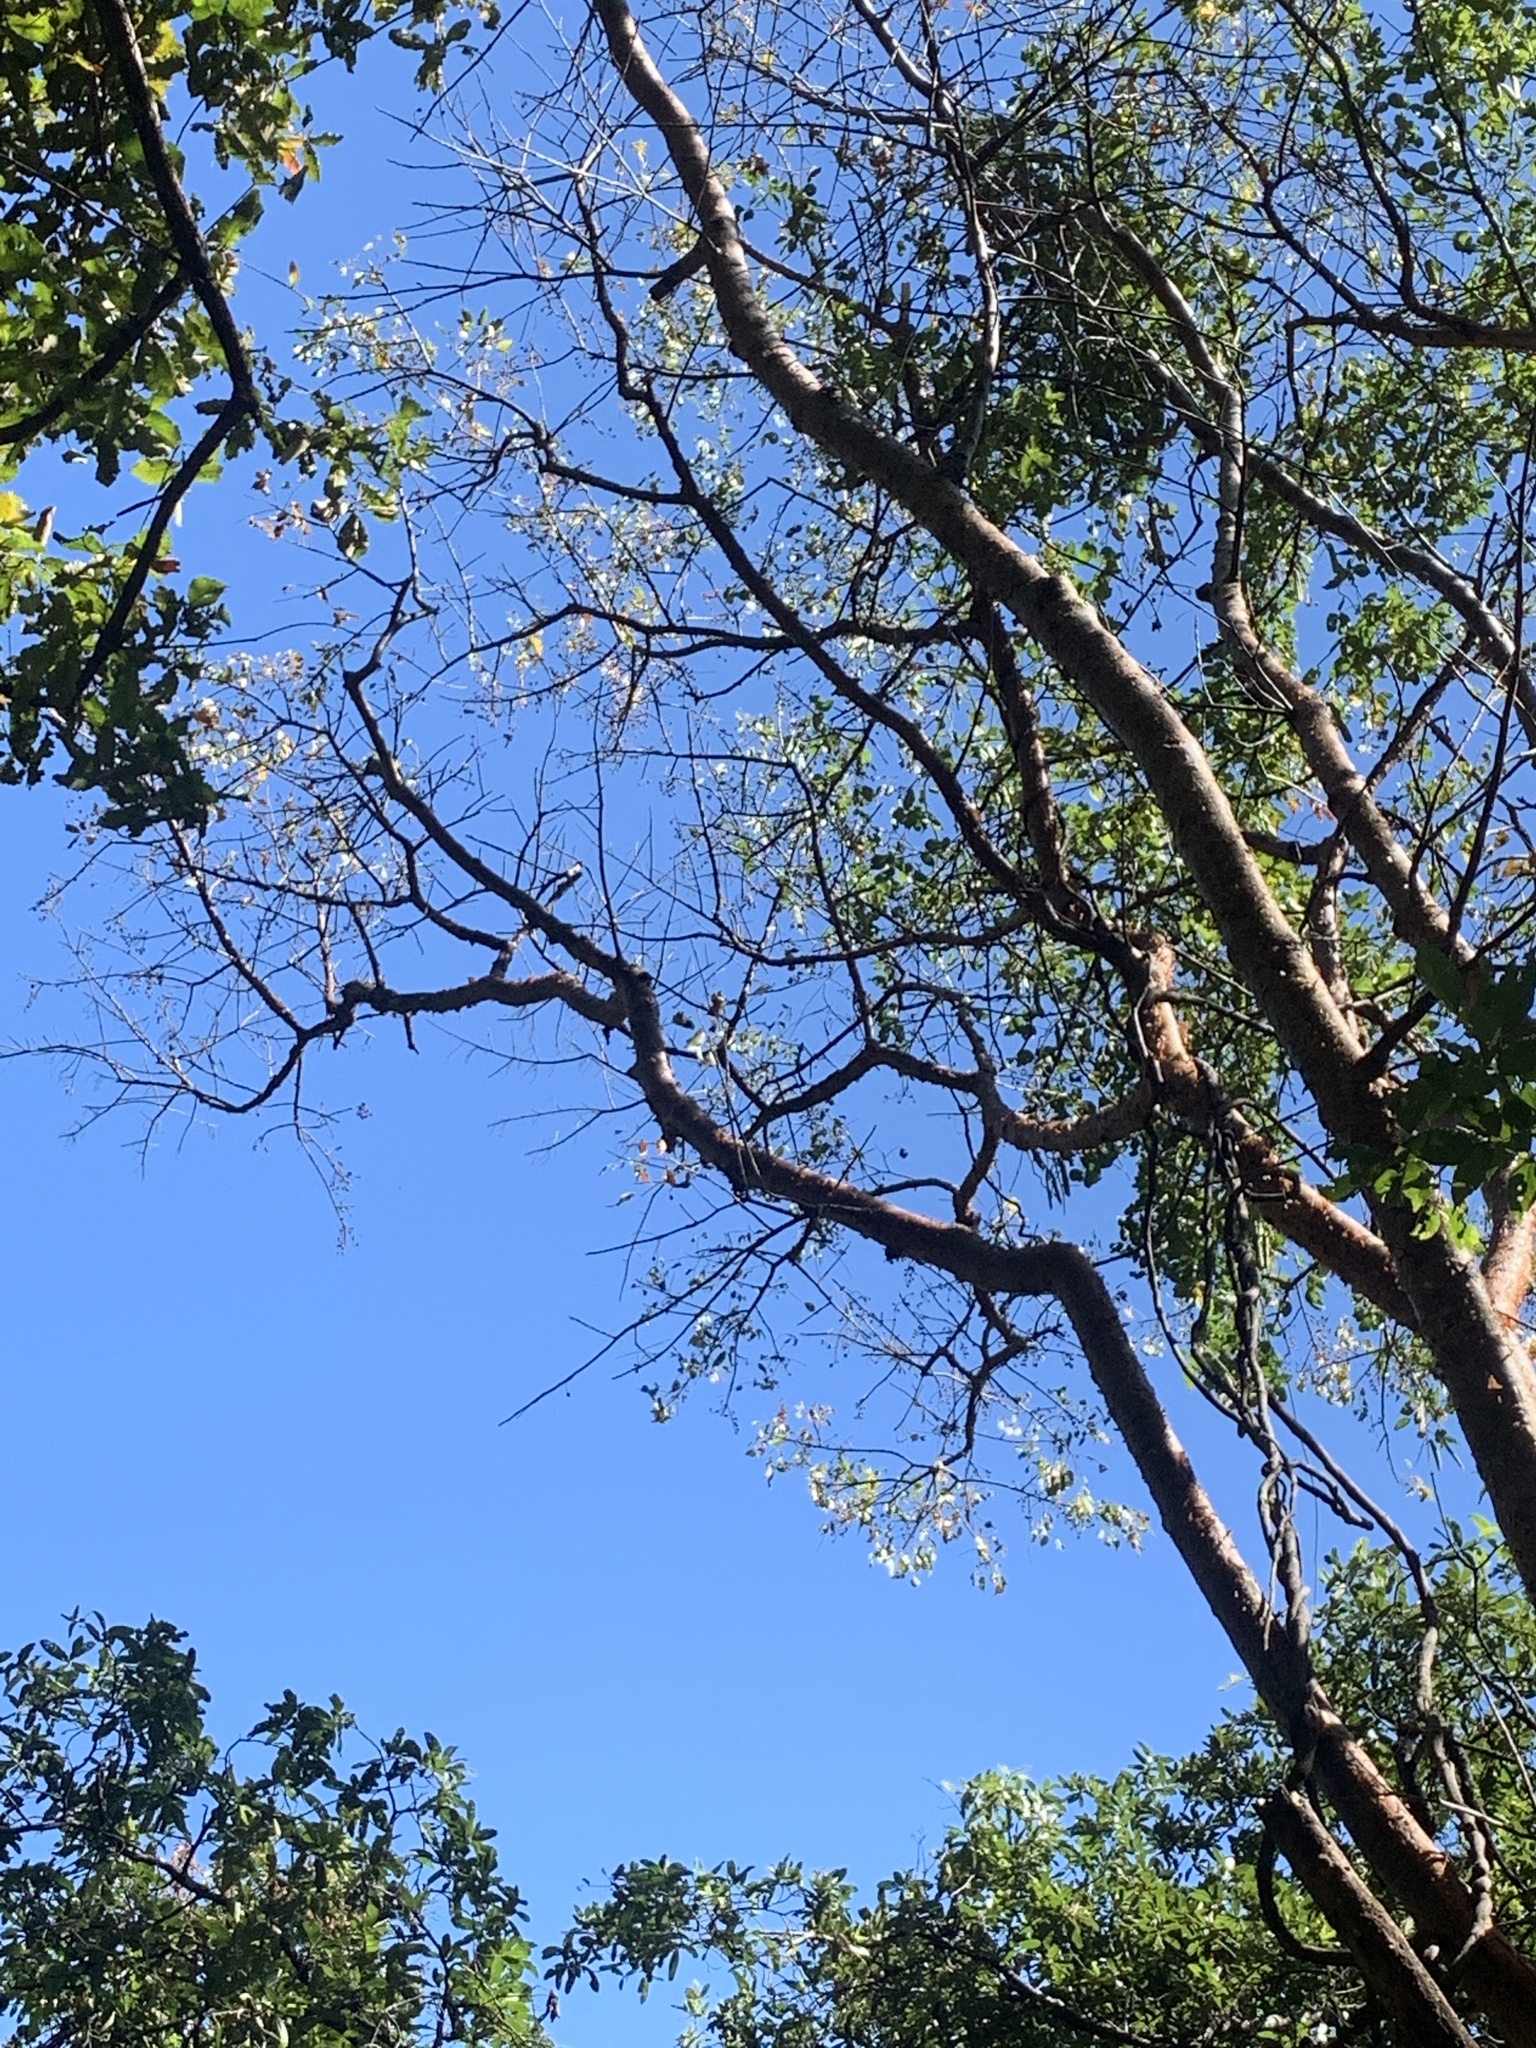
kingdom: Plantae
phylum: Tracheophyta
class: Magnoliopsida
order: Sapindales
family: Burseraceae
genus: Bursera
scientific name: Bursera simaruba
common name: Turpentine tree
